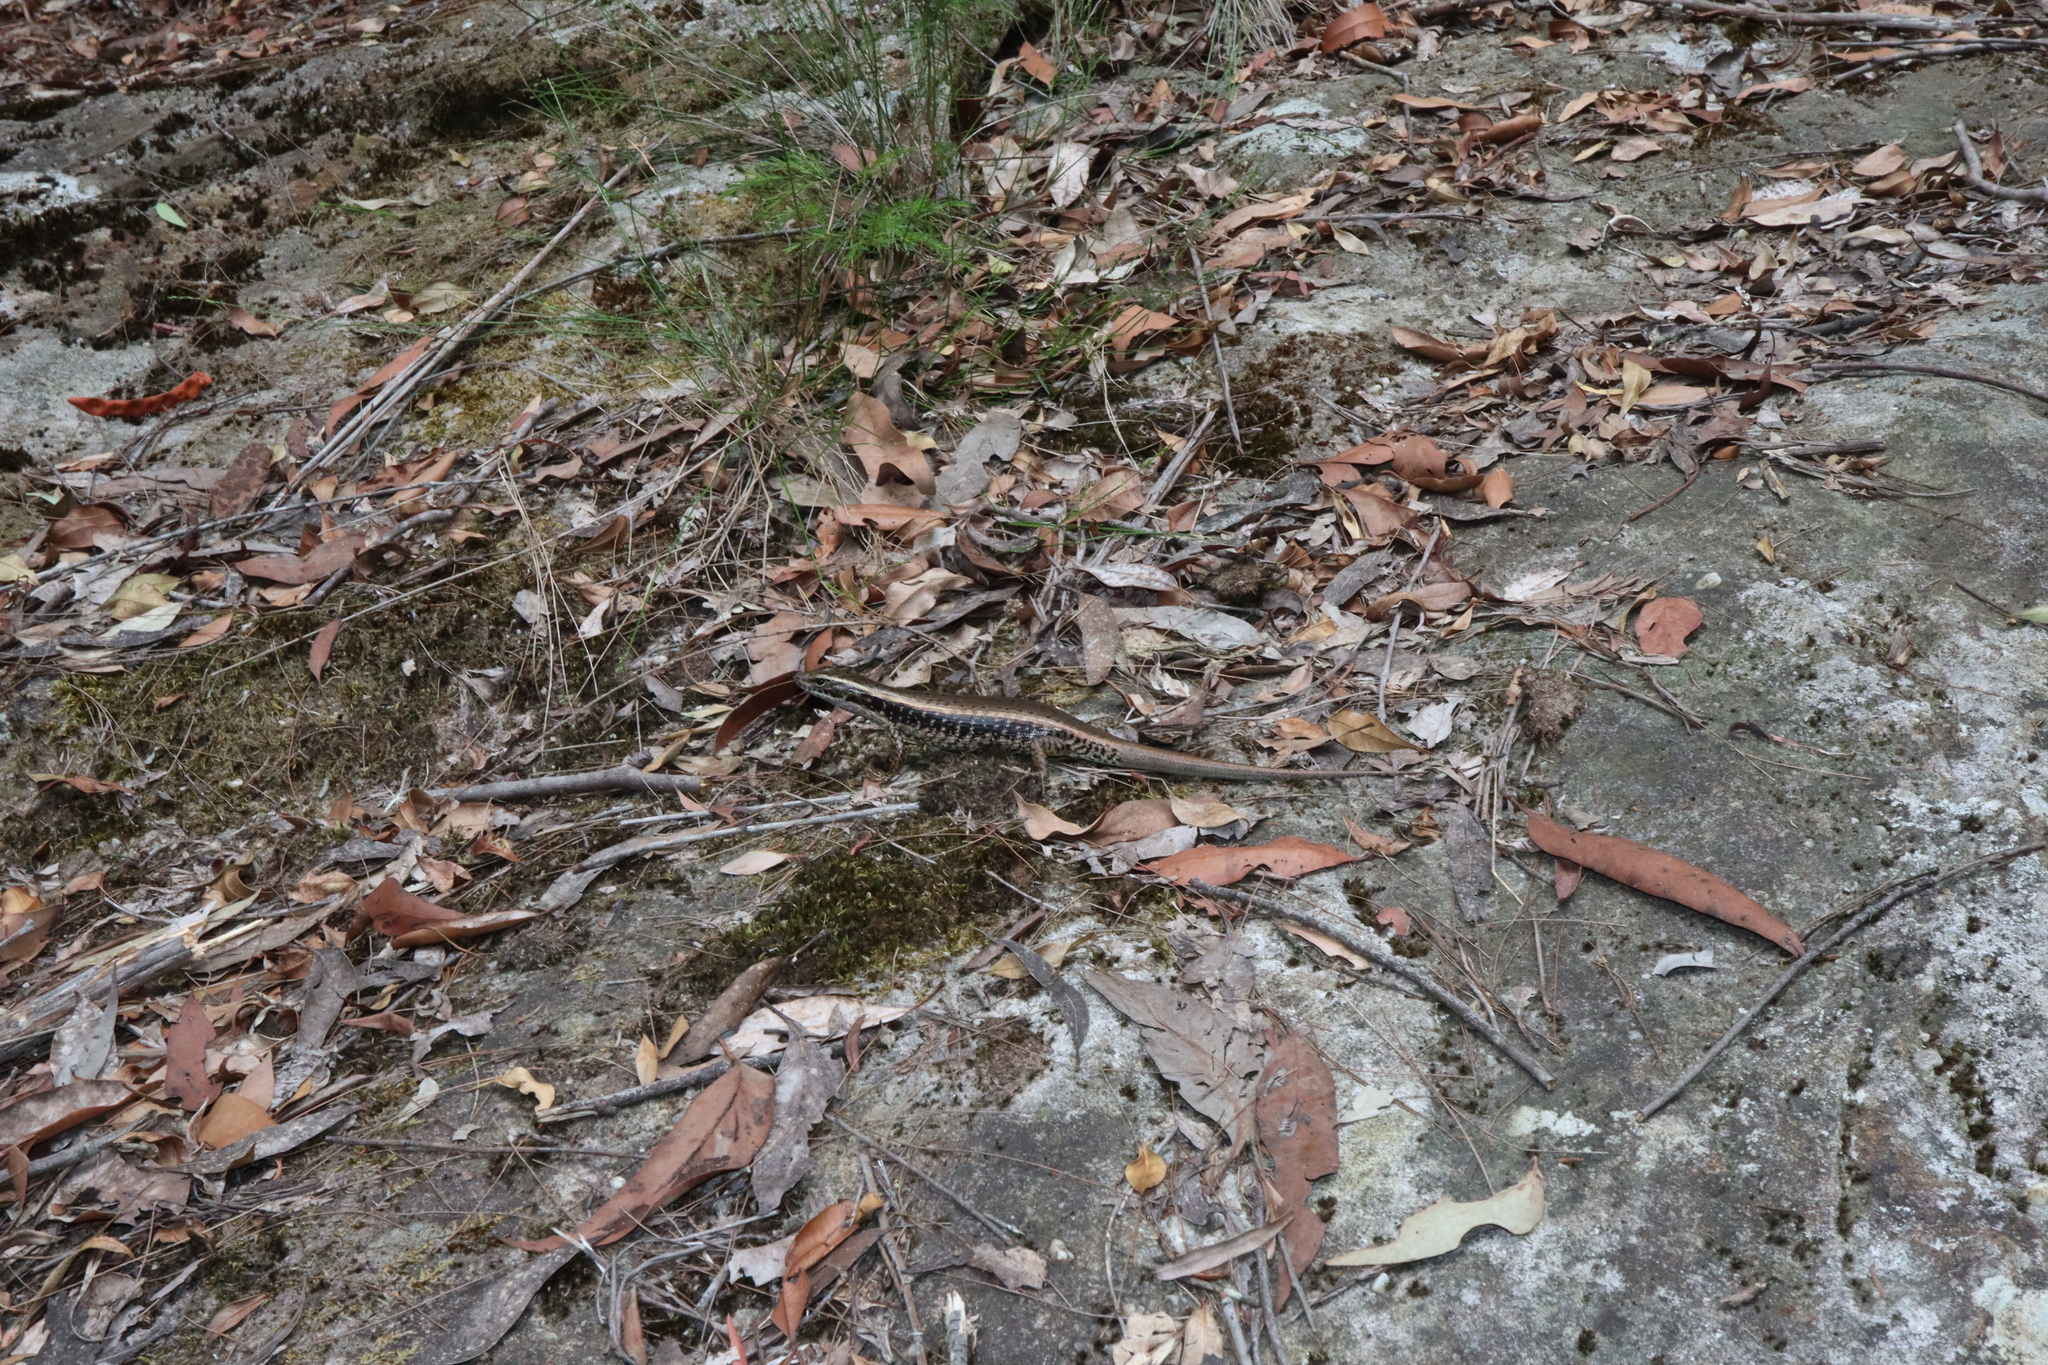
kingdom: Animalia
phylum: Chordata
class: Squamata
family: Scincidae
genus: Eulamprus
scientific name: Eulamprus quoyii
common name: Eastern water skink
